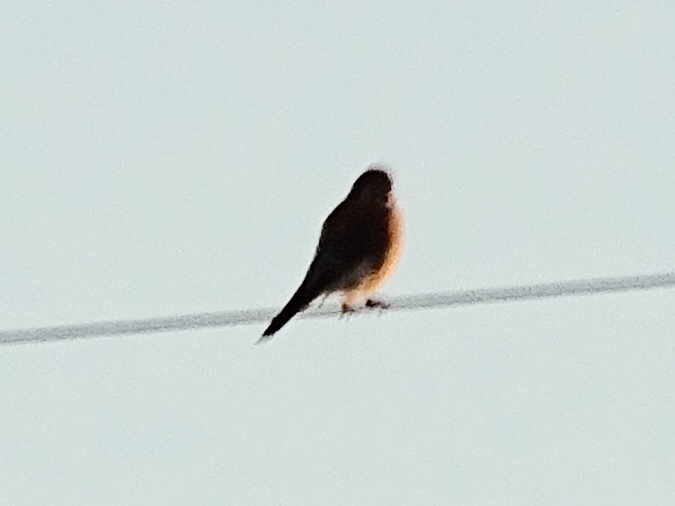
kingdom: Animalia
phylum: Chordata
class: Aves
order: Falconiformes
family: Falconidae
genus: Falco
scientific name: Falco sparverius
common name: American kestrel
